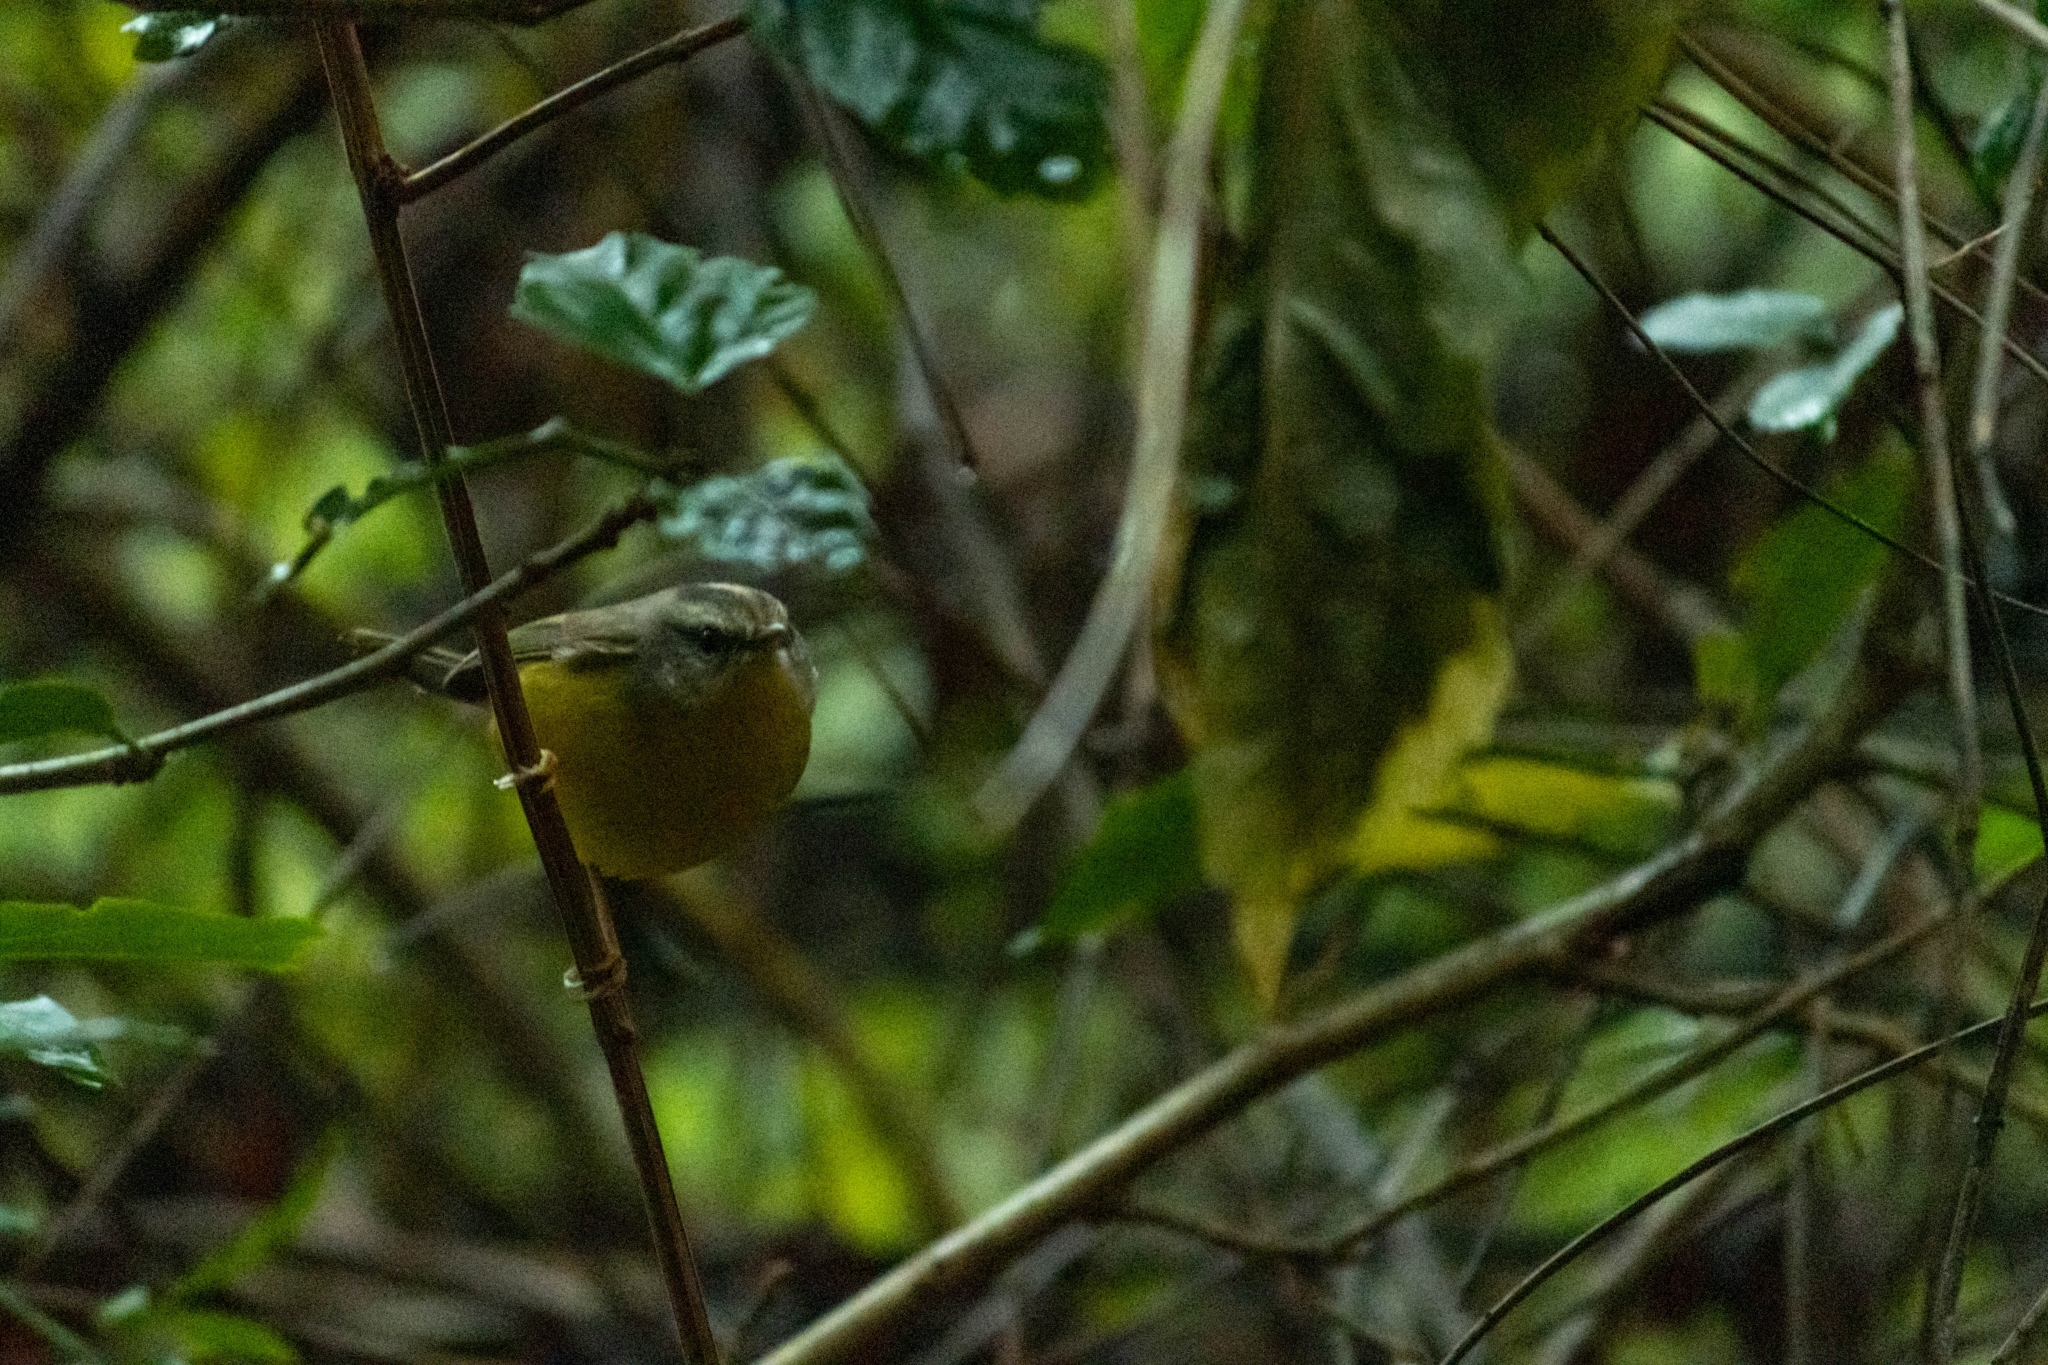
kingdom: Animalia
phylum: Chordata
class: Aves
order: Passeriformes
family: Parulidae
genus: Basileuterus
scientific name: Basileuterus culicivorus
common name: Golden-crowned warbler
